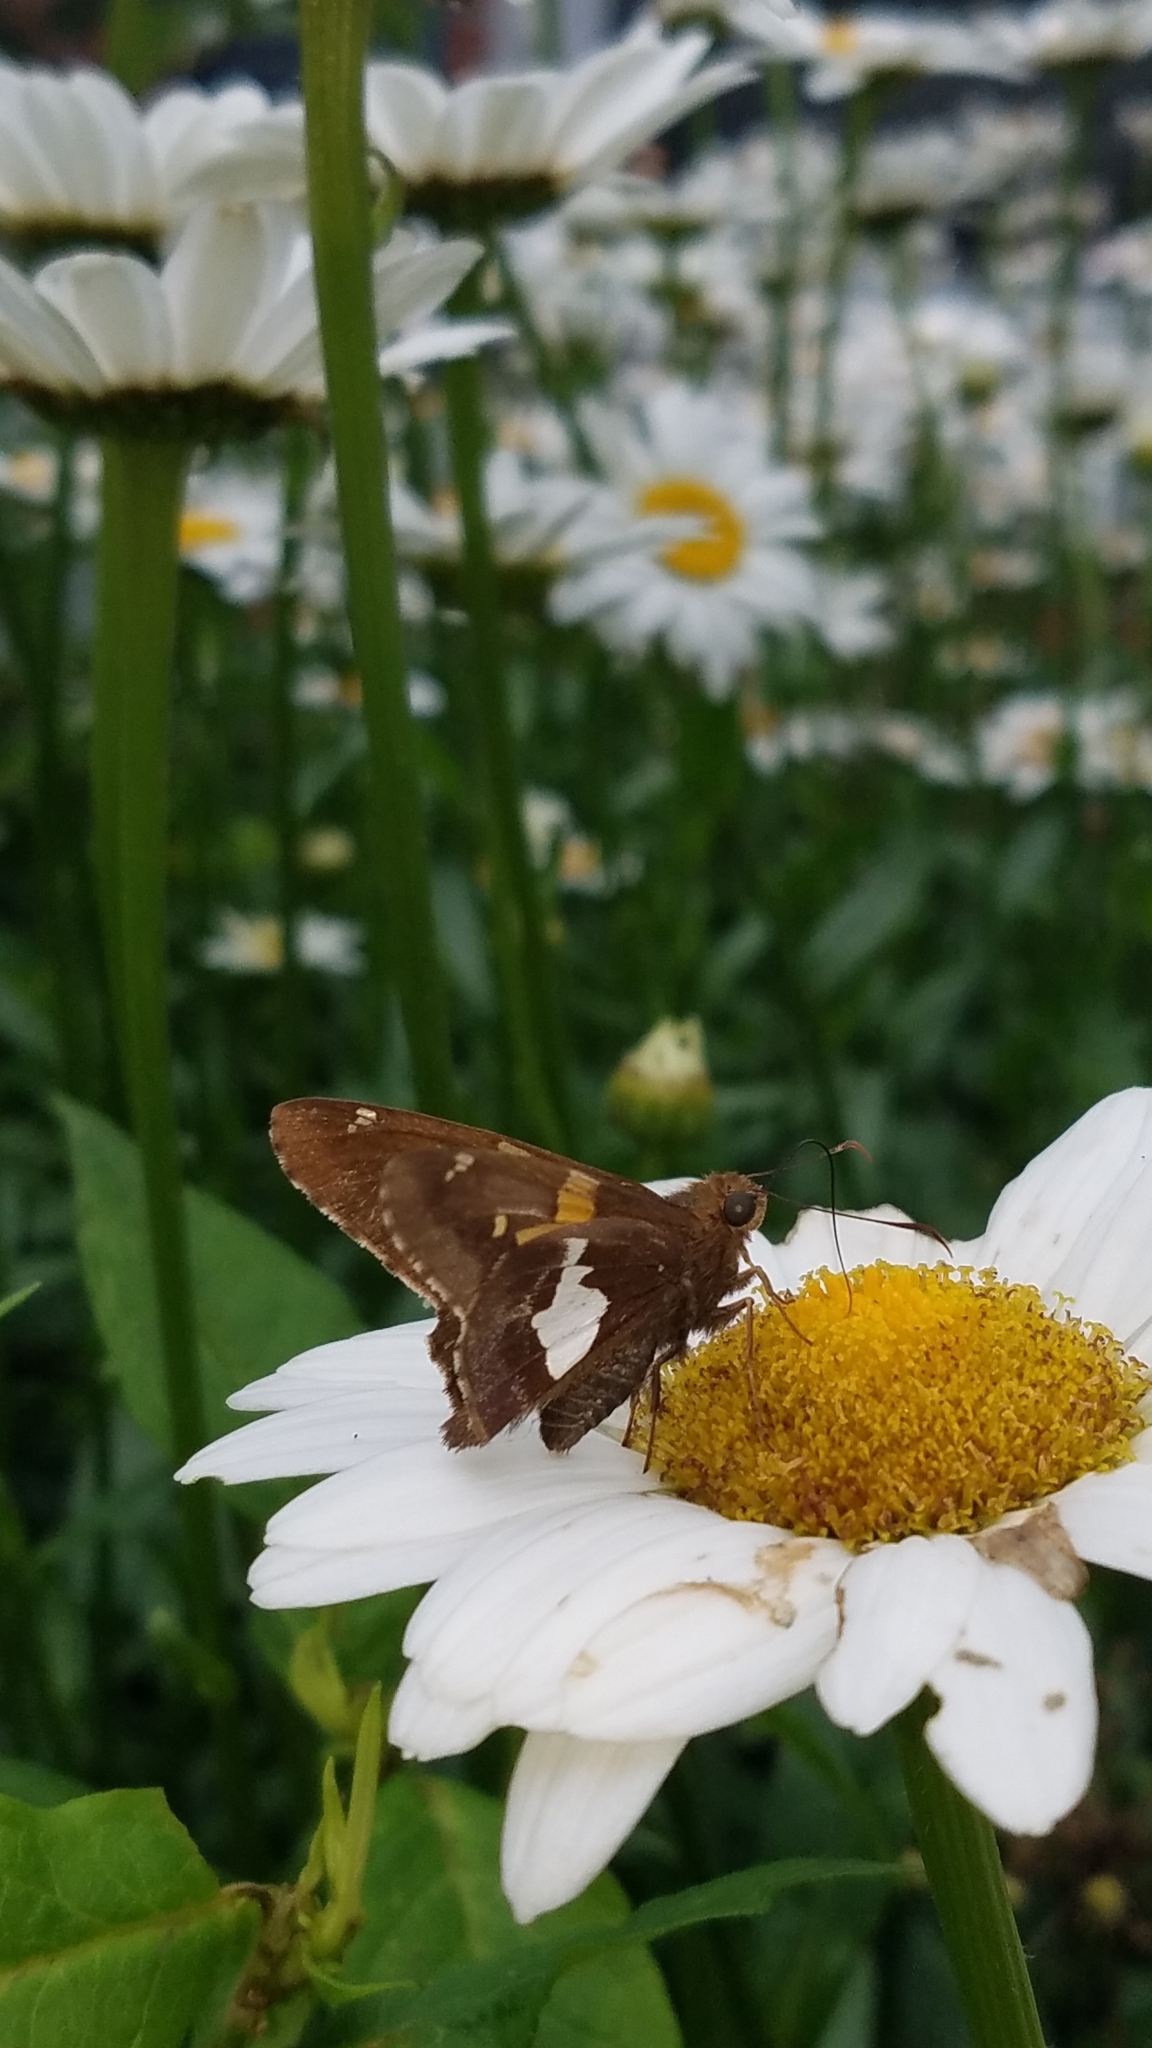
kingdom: Animalia
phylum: Arthropoda
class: Insecta
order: Lepidoptera
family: Hesperiidae
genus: Epargyreus
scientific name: Epargyreus clarus
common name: Silver-spotted skipper
